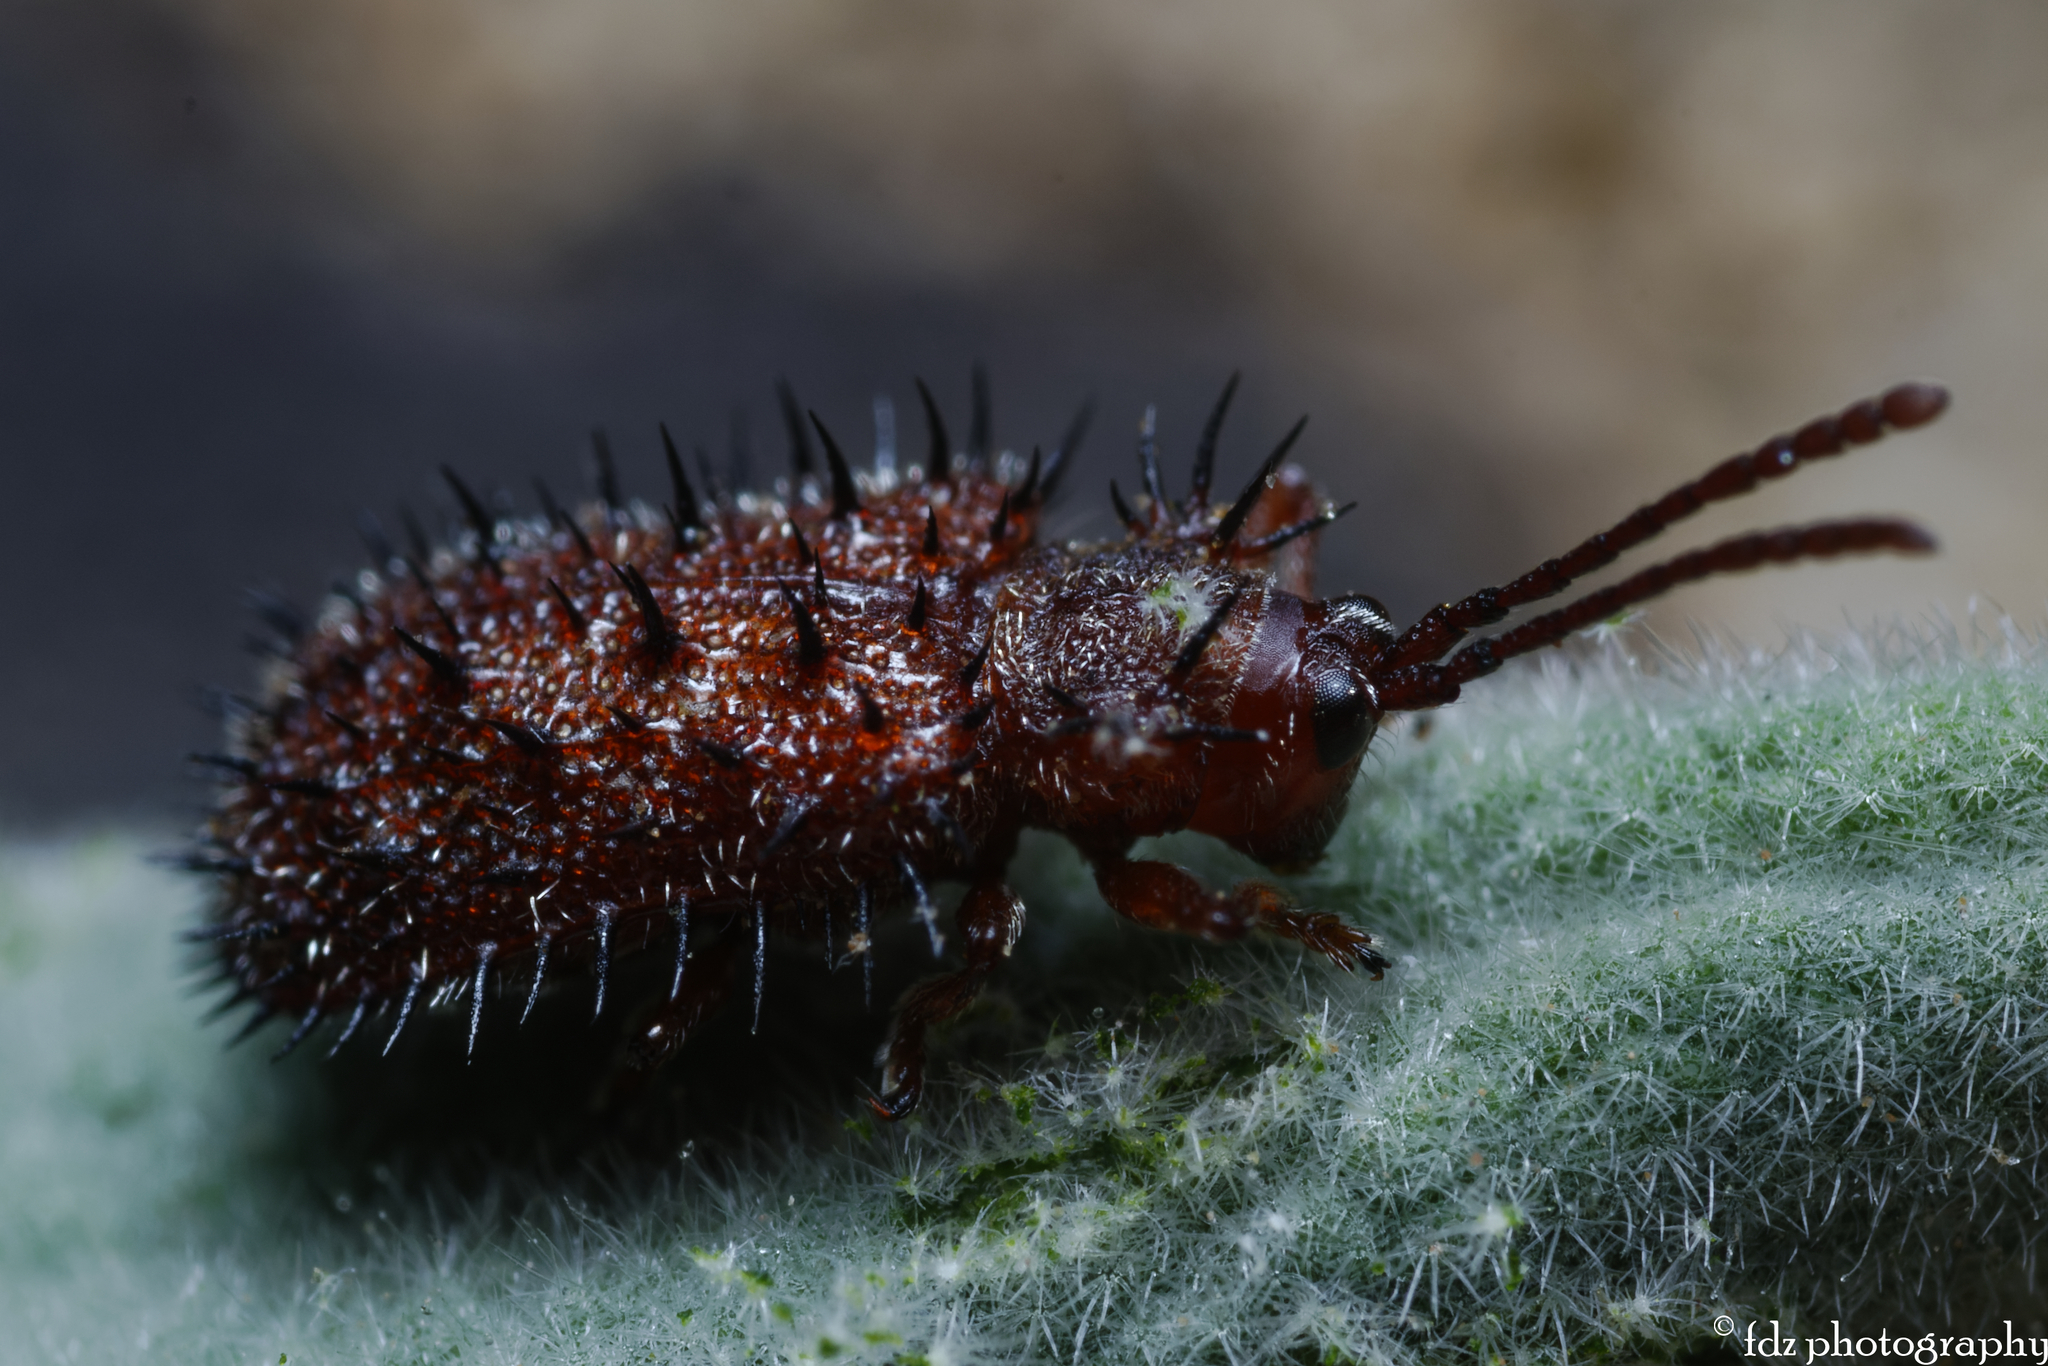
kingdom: Animalia
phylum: Arthropoda
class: Insecta
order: Coleoptera
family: Chrysomelidae
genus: Dicladispa
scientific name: Dicladispa testacea
